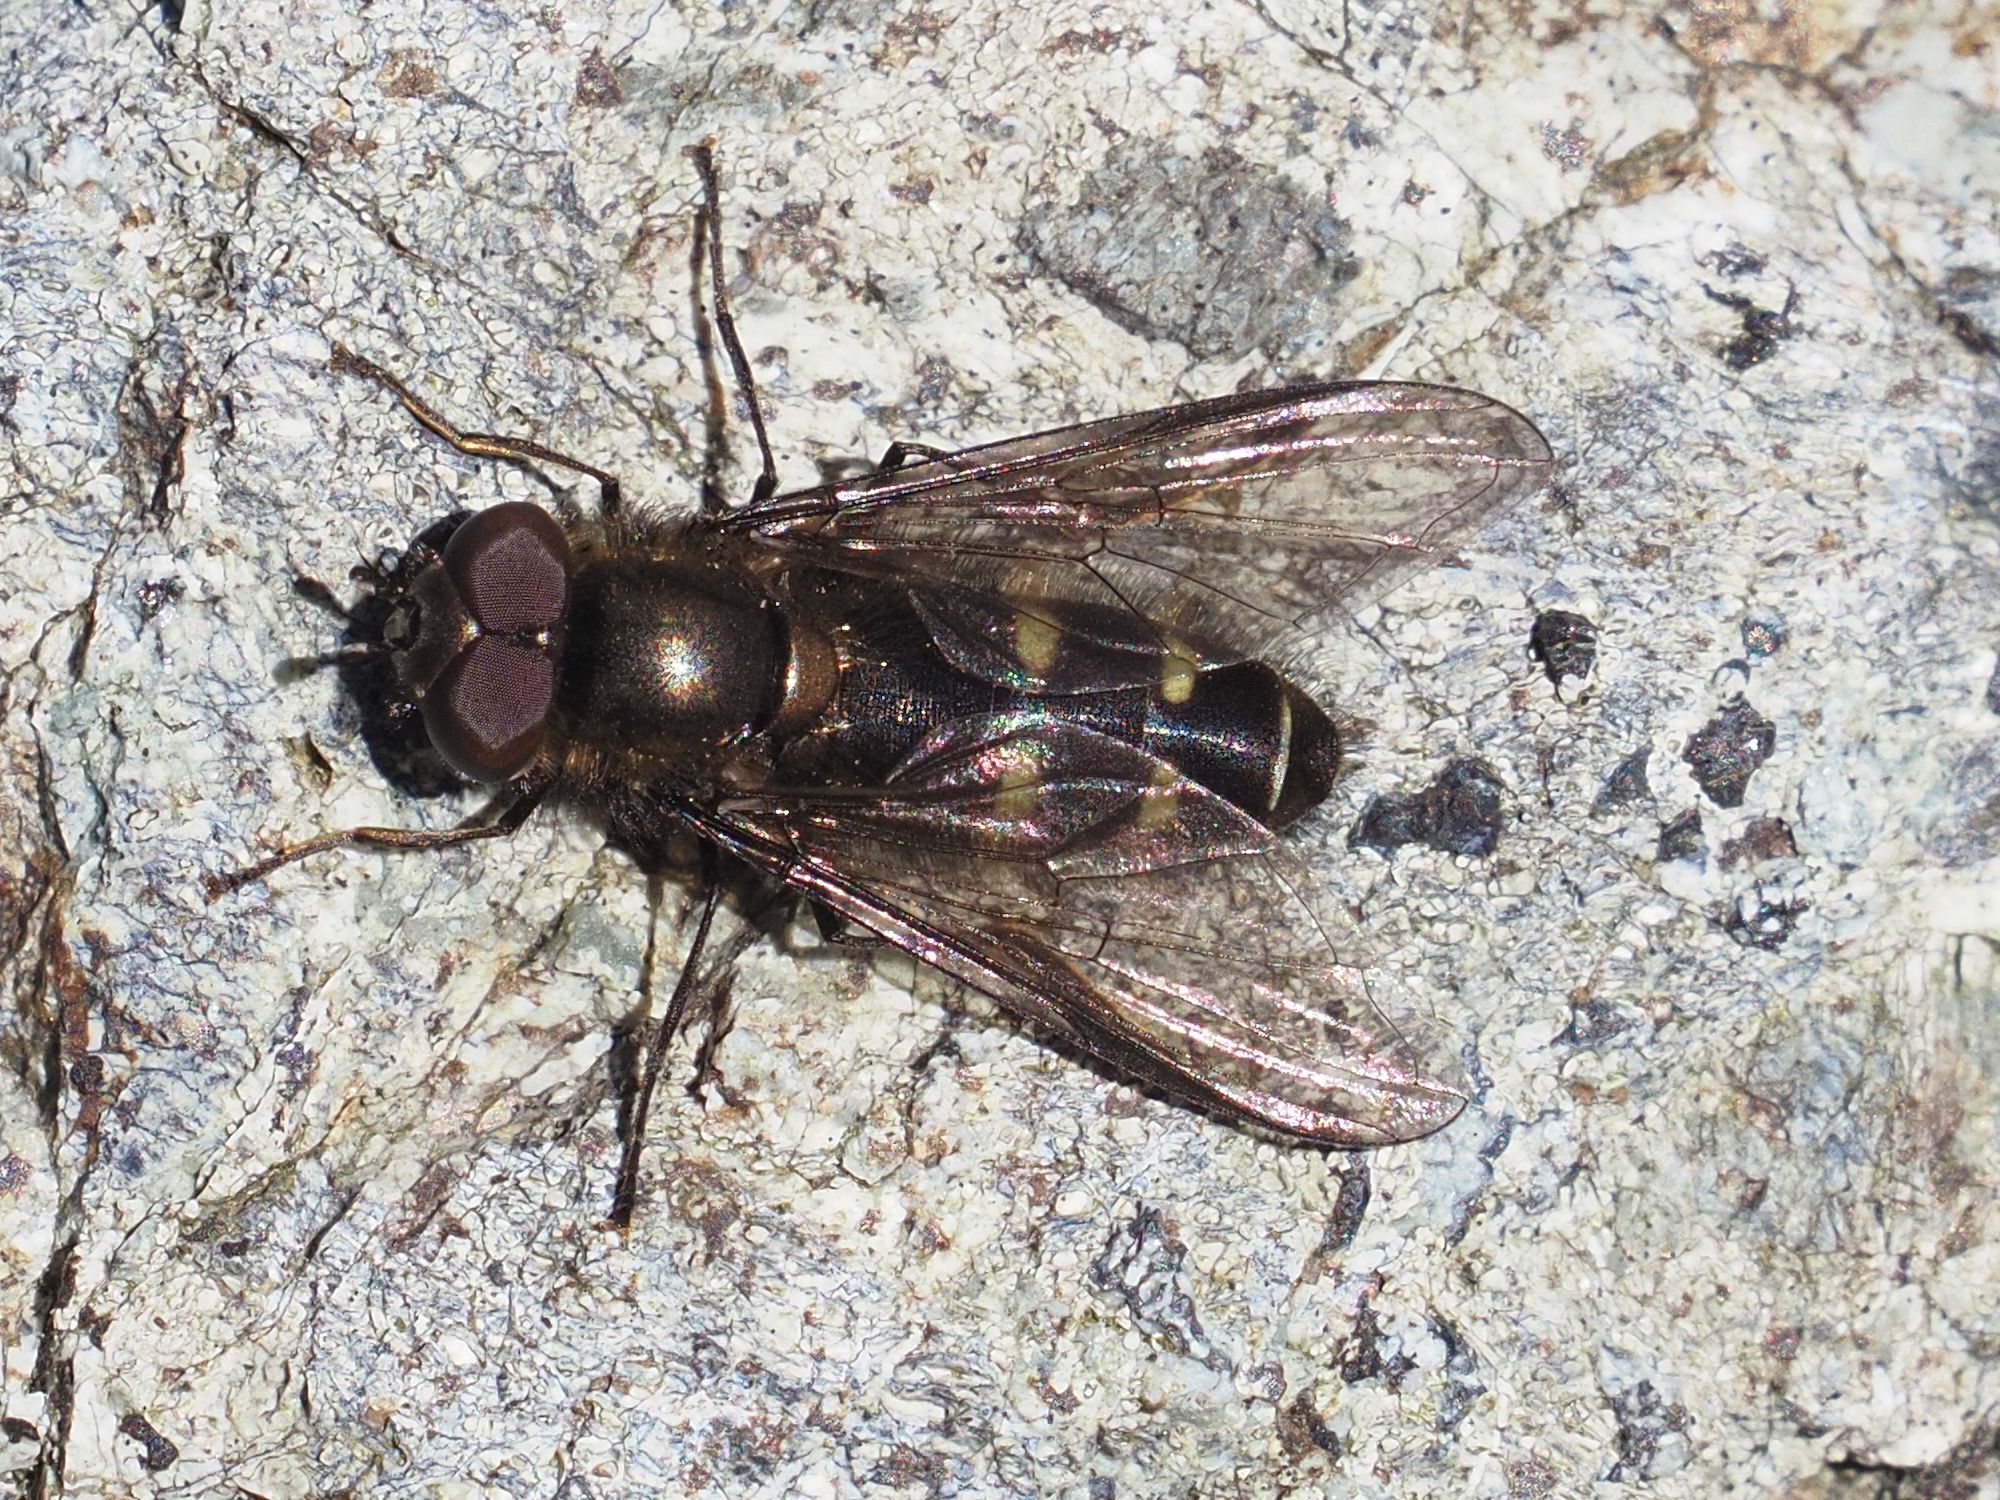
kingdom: Animalia
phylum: Arthropoda
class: Insecta
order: Diptera
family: Syrphidae
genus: Melangyna
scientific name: Melangyna quadrimaculata
